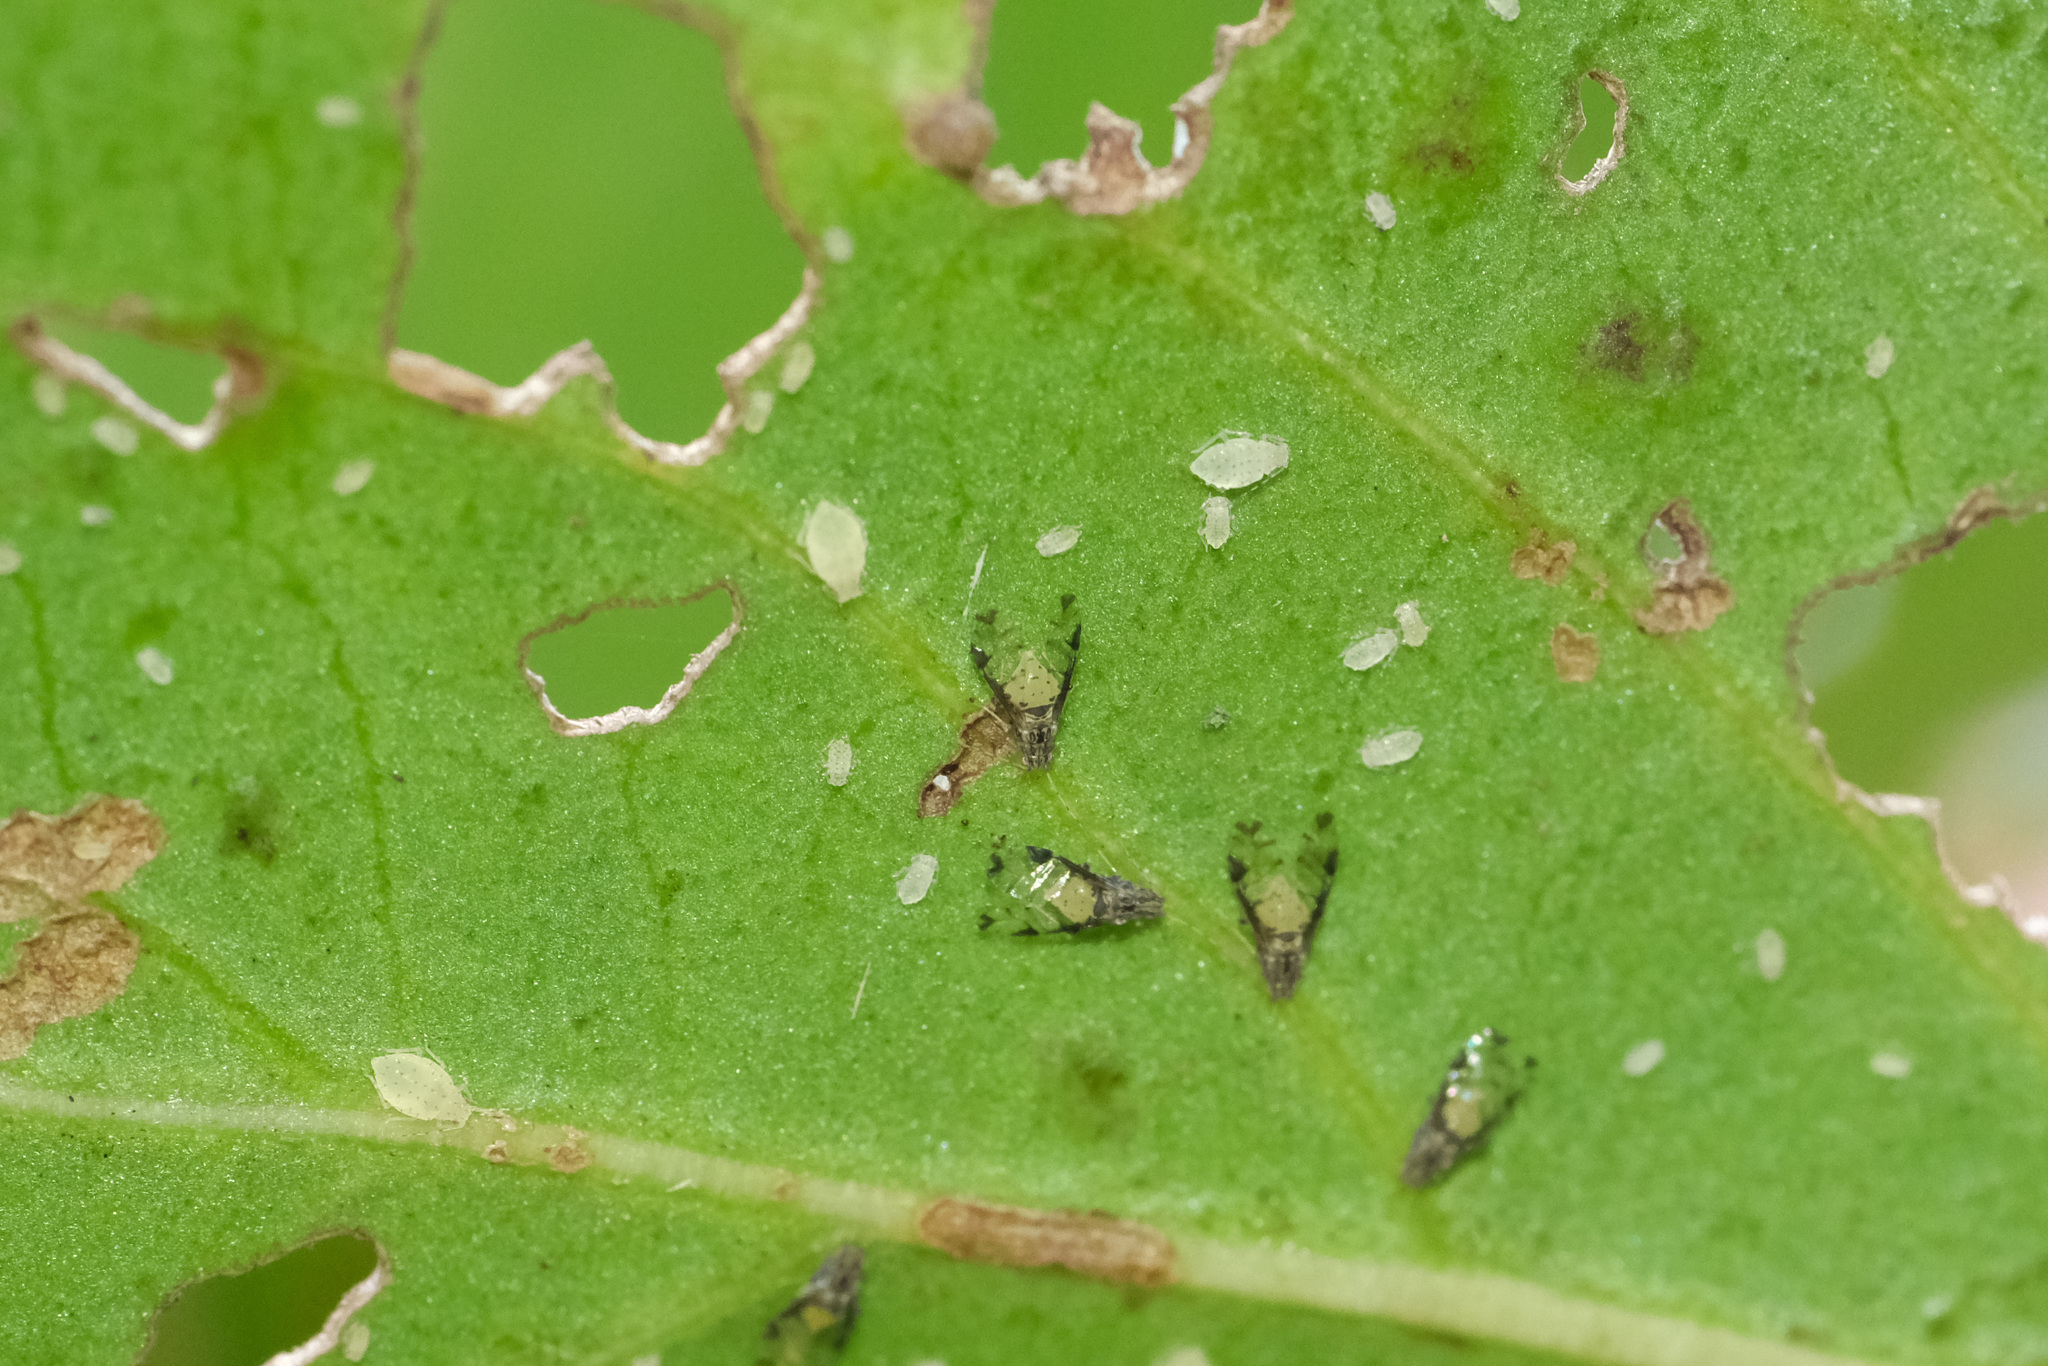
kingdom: Animalia
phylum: Arthropoda
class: Insecta
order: Hemiptera
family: Aphididae
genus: Sarucallis
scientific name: Sarucallis kahawaluokalani
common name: Crapemyrtle aphid
